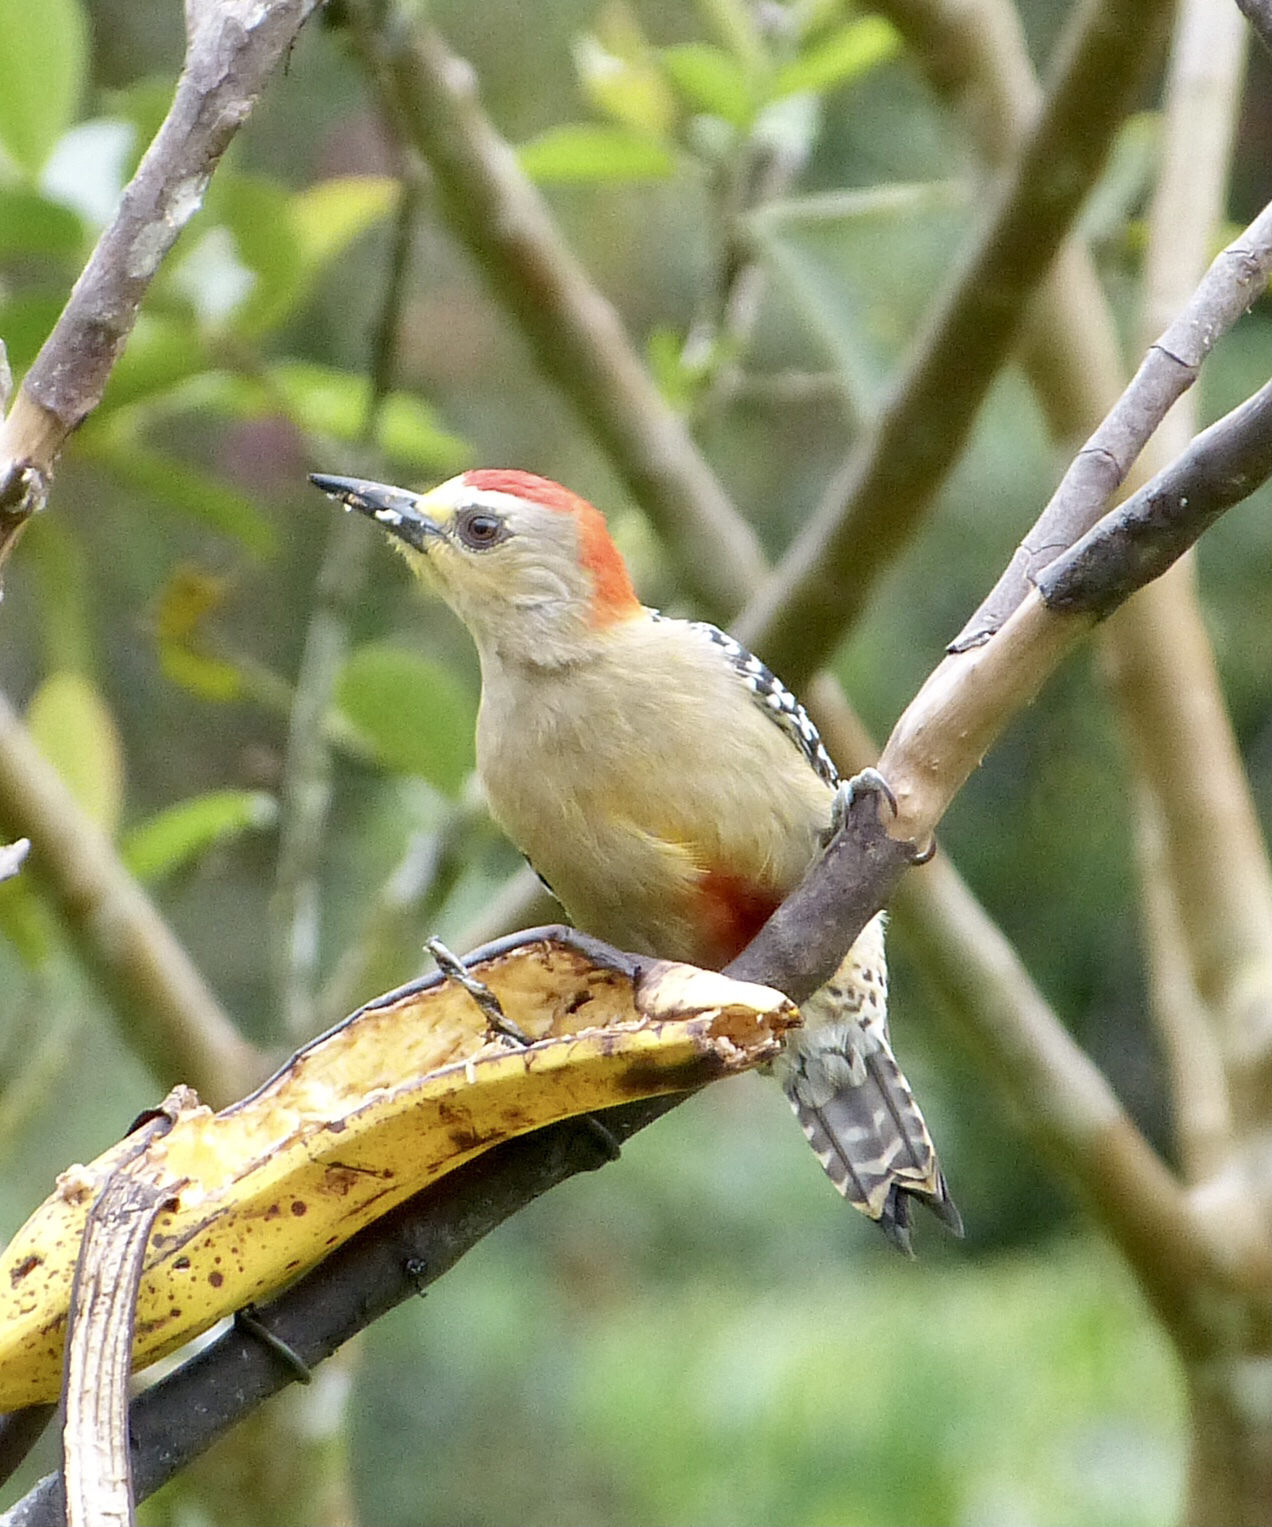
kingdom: Animalia
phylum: Chordata
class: Aves
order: Piciformes
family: Picidae
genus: Melanerpes
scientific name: Melanerpes rubricapillus
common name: Red-crowned woodpecker
